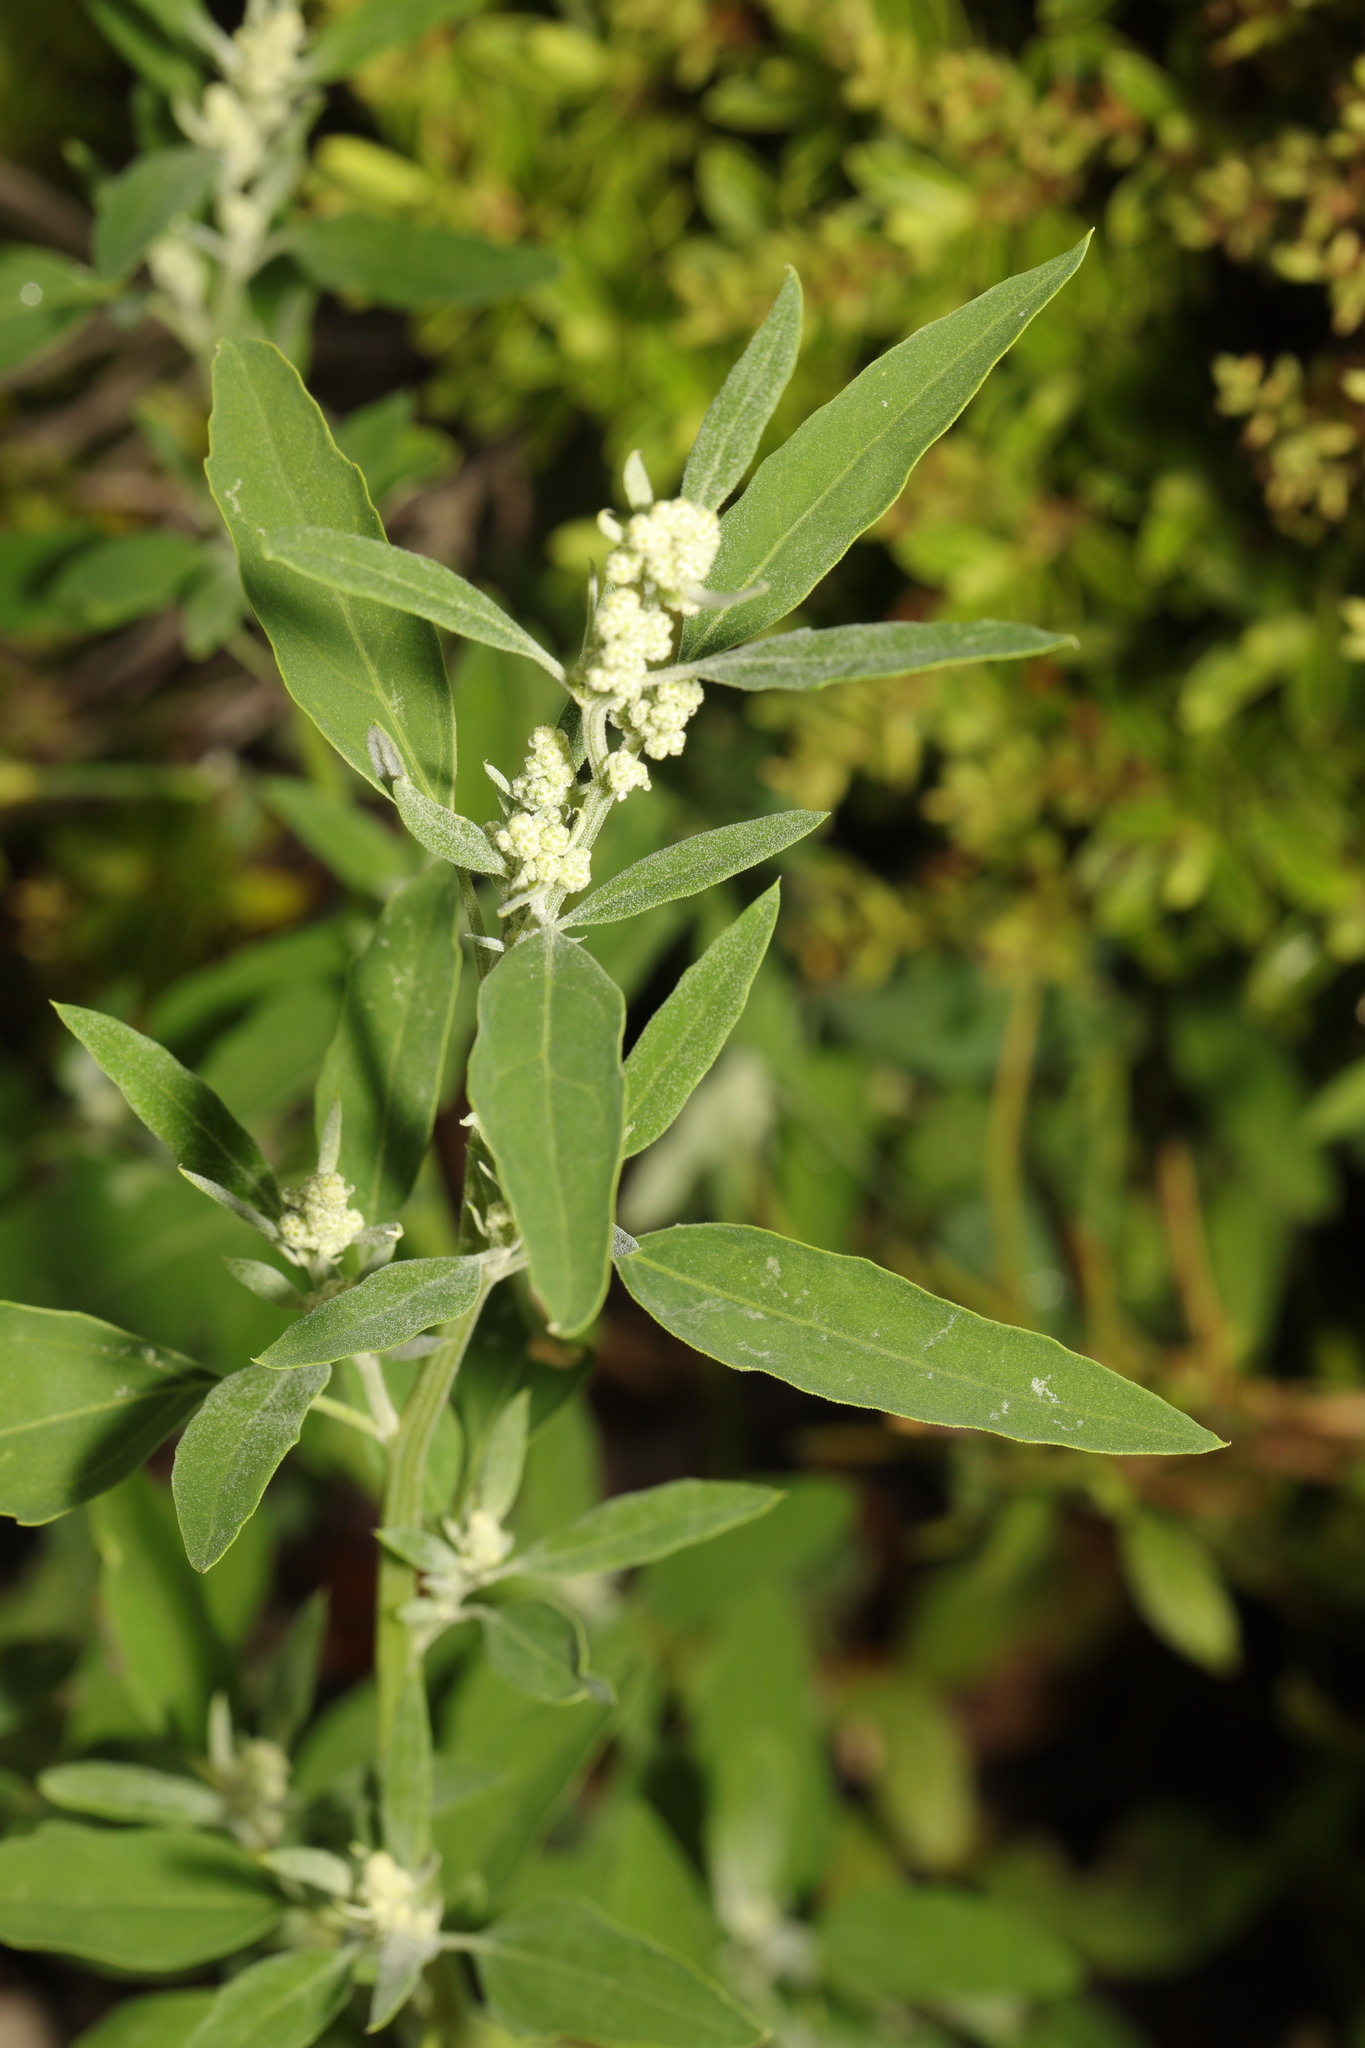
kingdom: Plantae
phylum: Tracheophyta
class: Magnoliopsida
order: Caryophyllales
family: Amaranthaceae
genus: Chenopodium
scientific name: Chenopodium album
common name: Fat-hen
